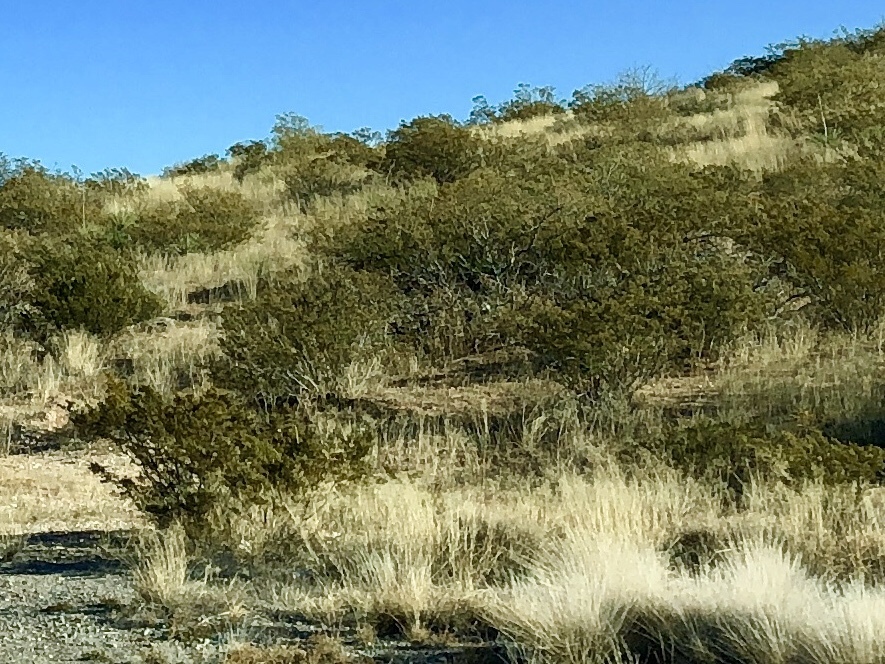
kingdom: Plantae
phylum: Tracheophyta
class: Magnoliopsida
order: Zygophyllales
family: Zygophyllaceae
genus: Larrea
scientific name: Larrea tridentata
